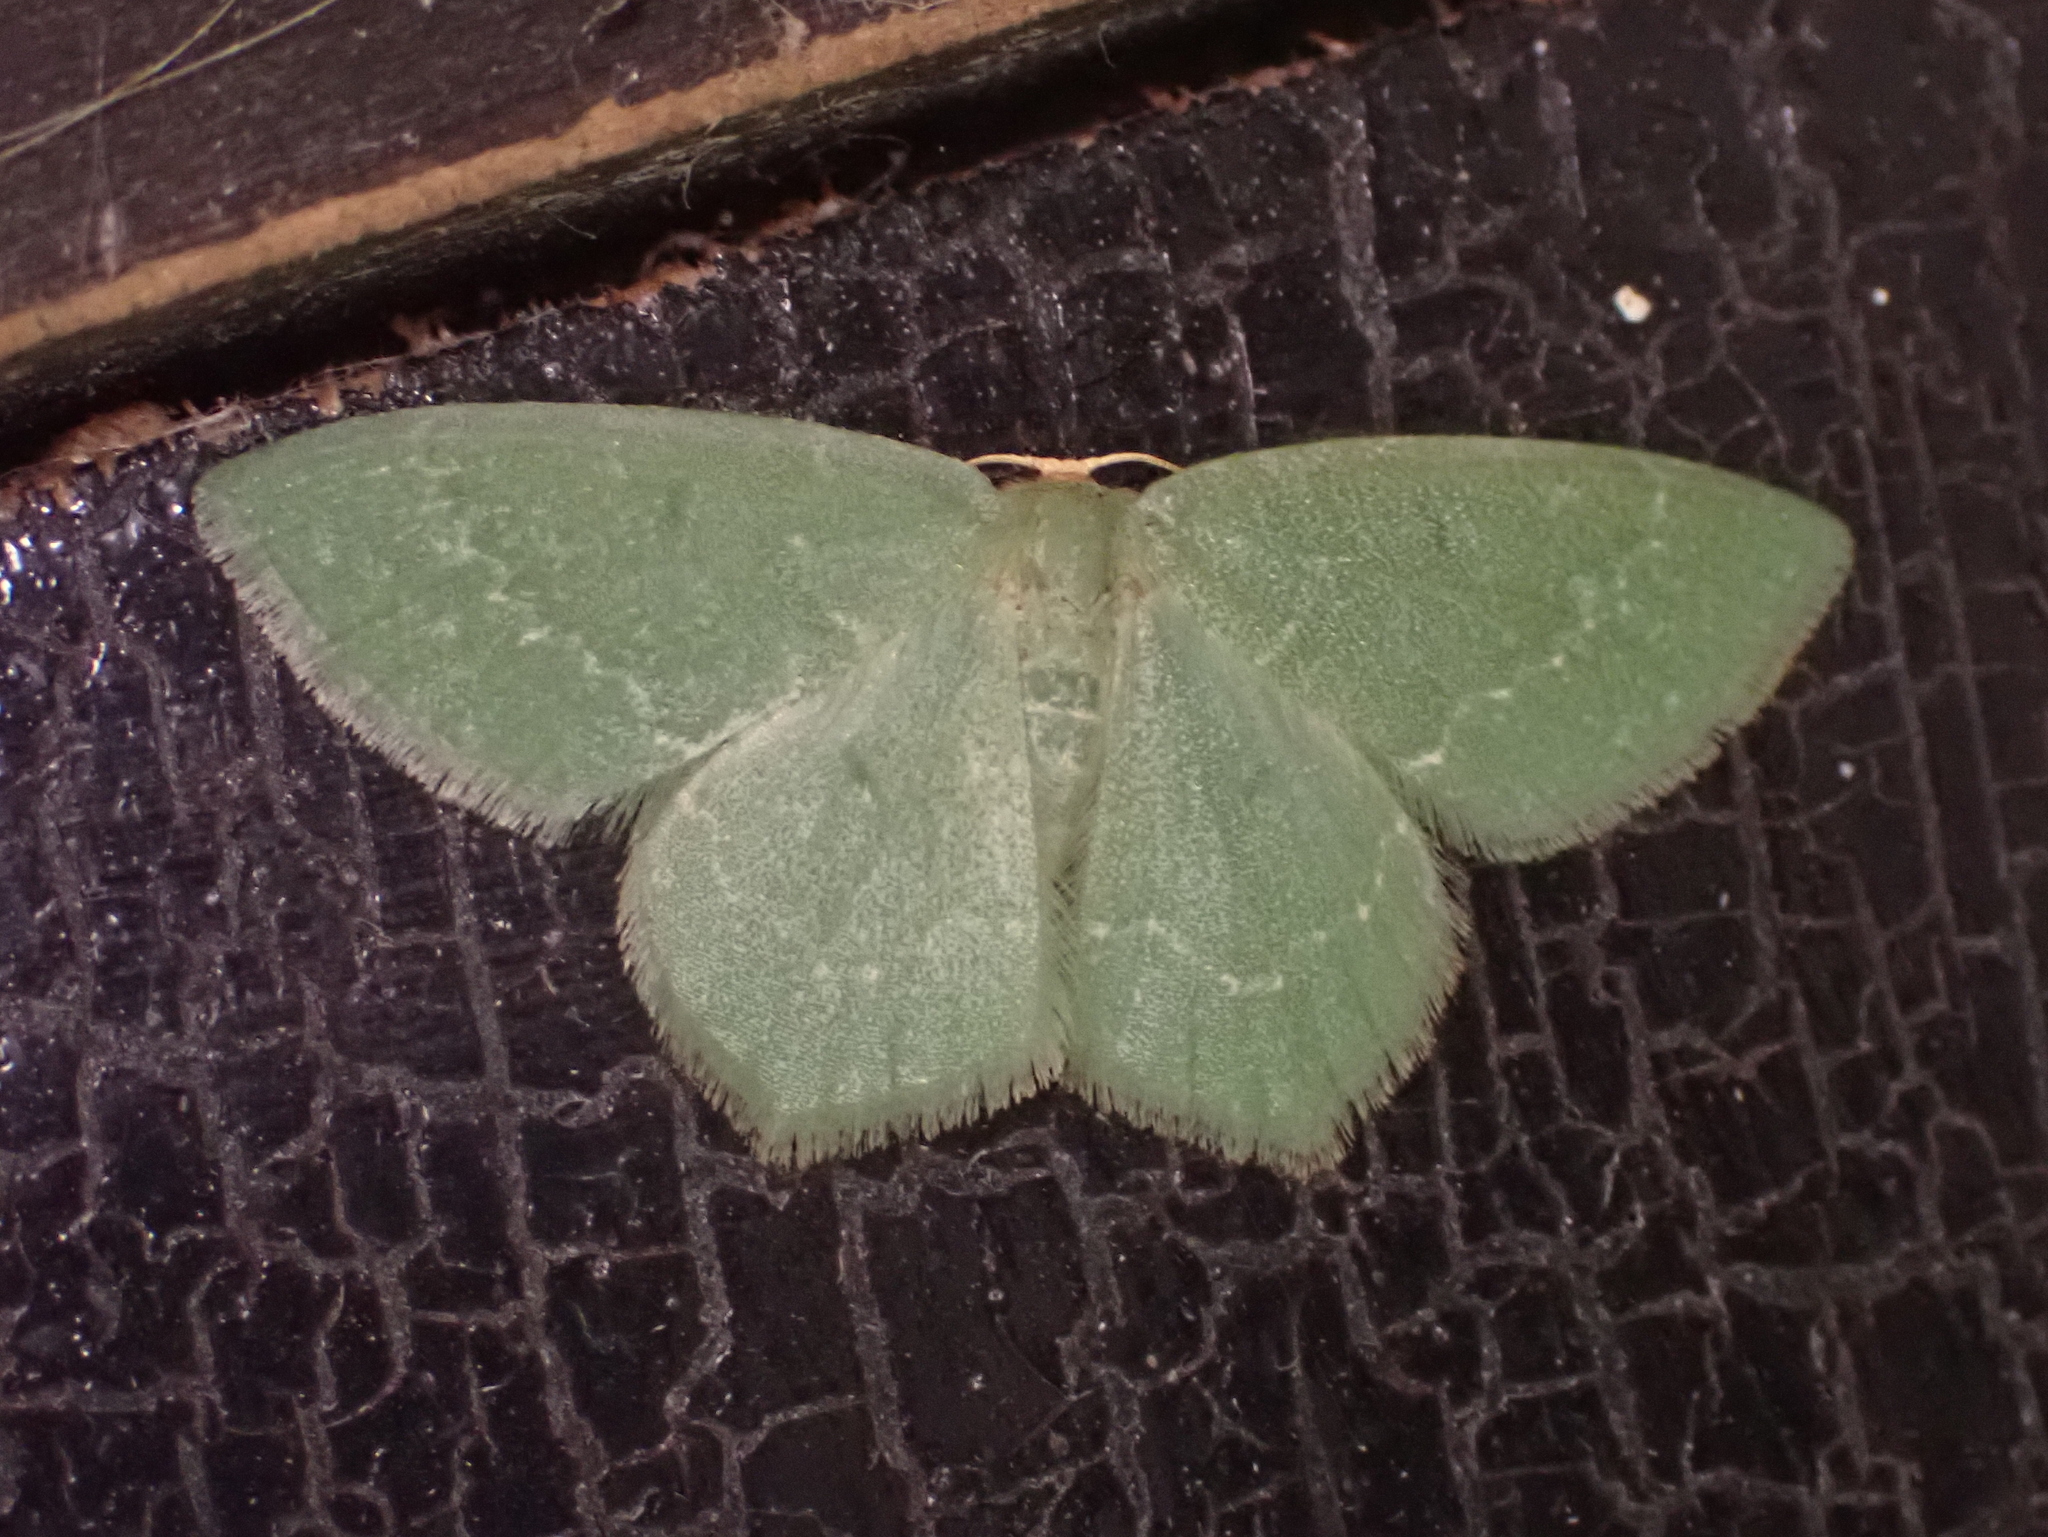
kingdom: Animalia
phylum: Arthropoda
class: Insecta
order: Lepidoptera
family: Geometridae
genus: Thalera
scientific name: Thalera pistasciaria
